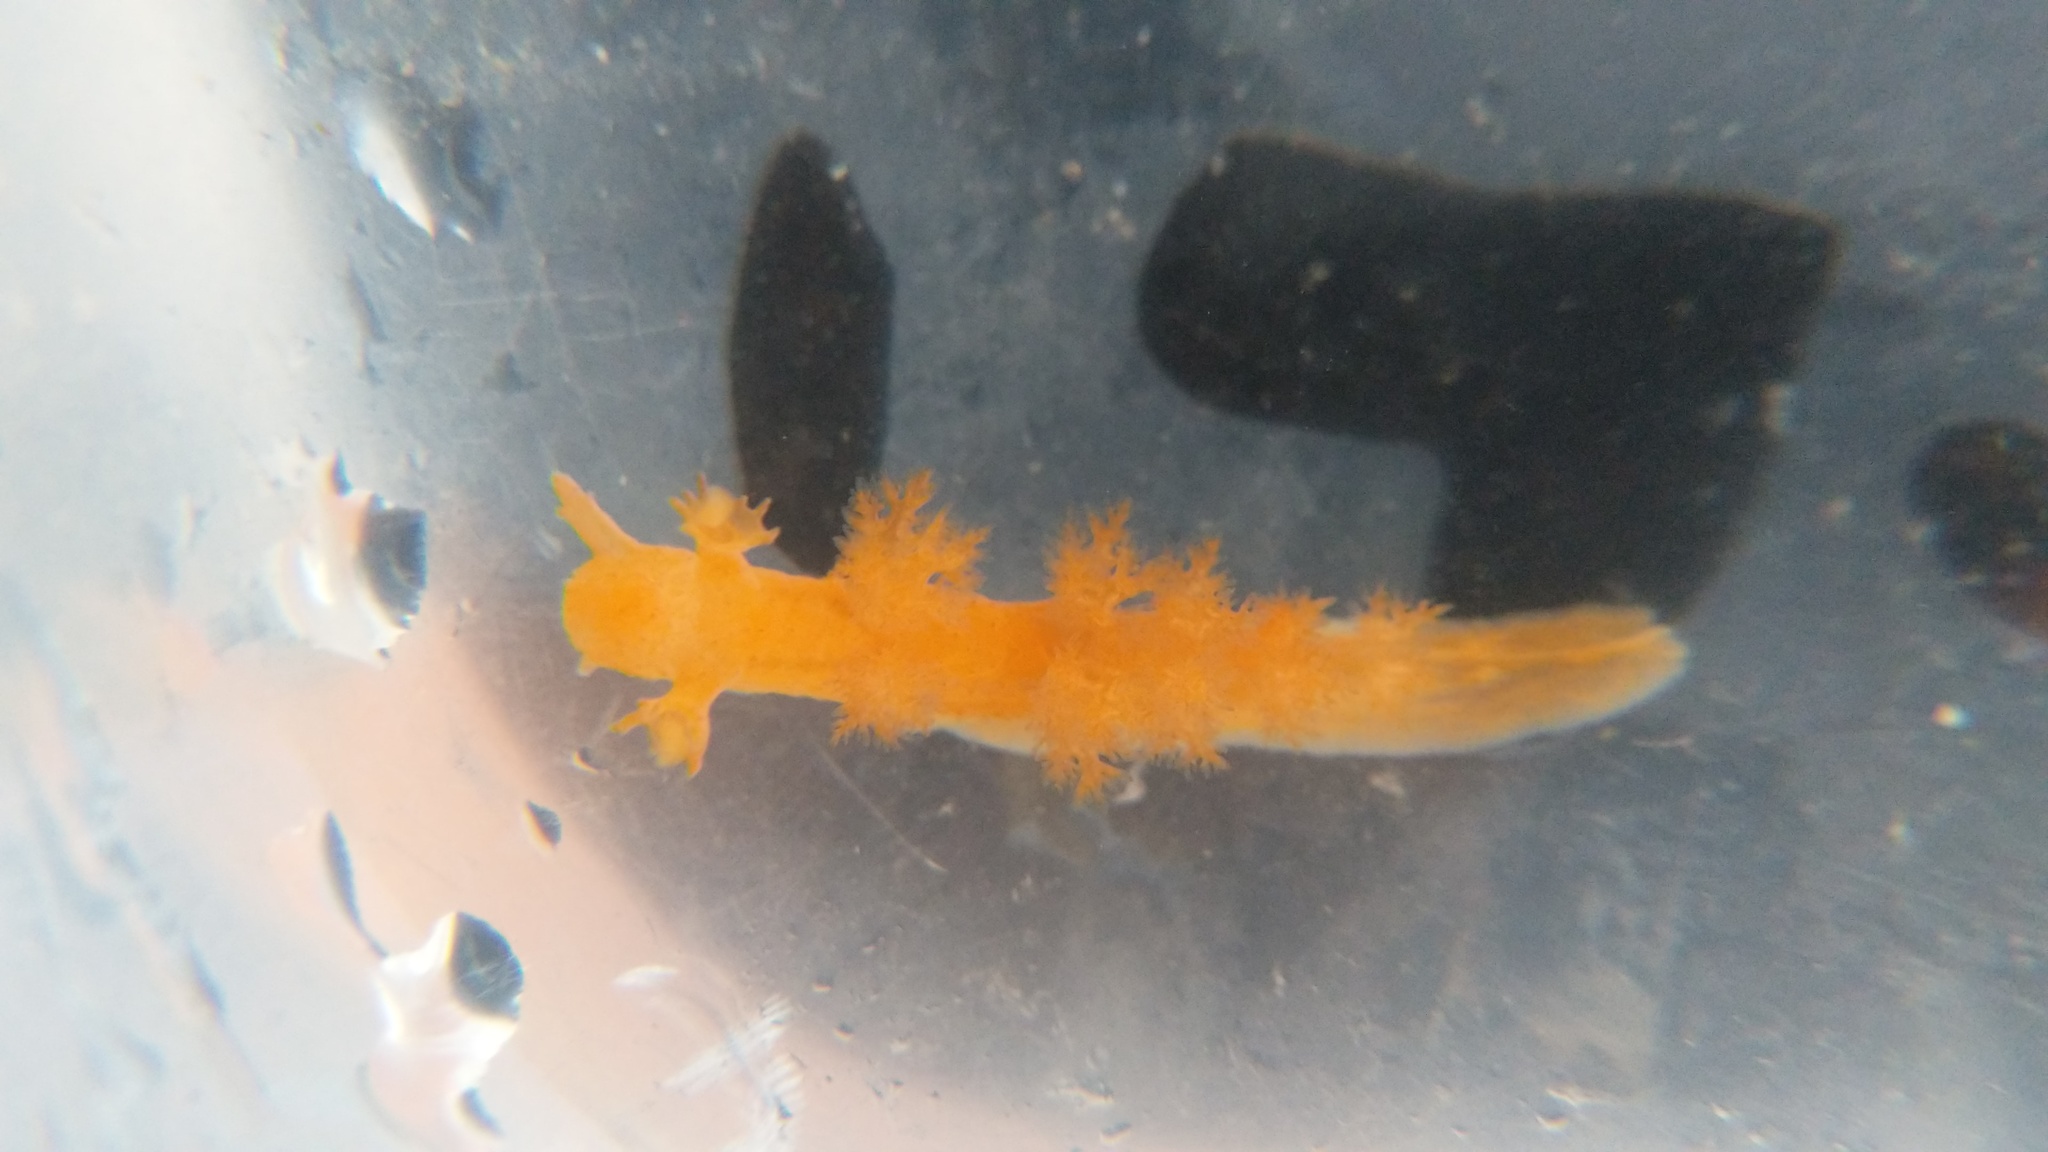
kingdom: Animalia
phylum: Mollusca
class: Gastropoda
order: Nudibranchia
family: Dendronotidae
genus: Dendronotus
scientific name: Dendronotus subramosus
